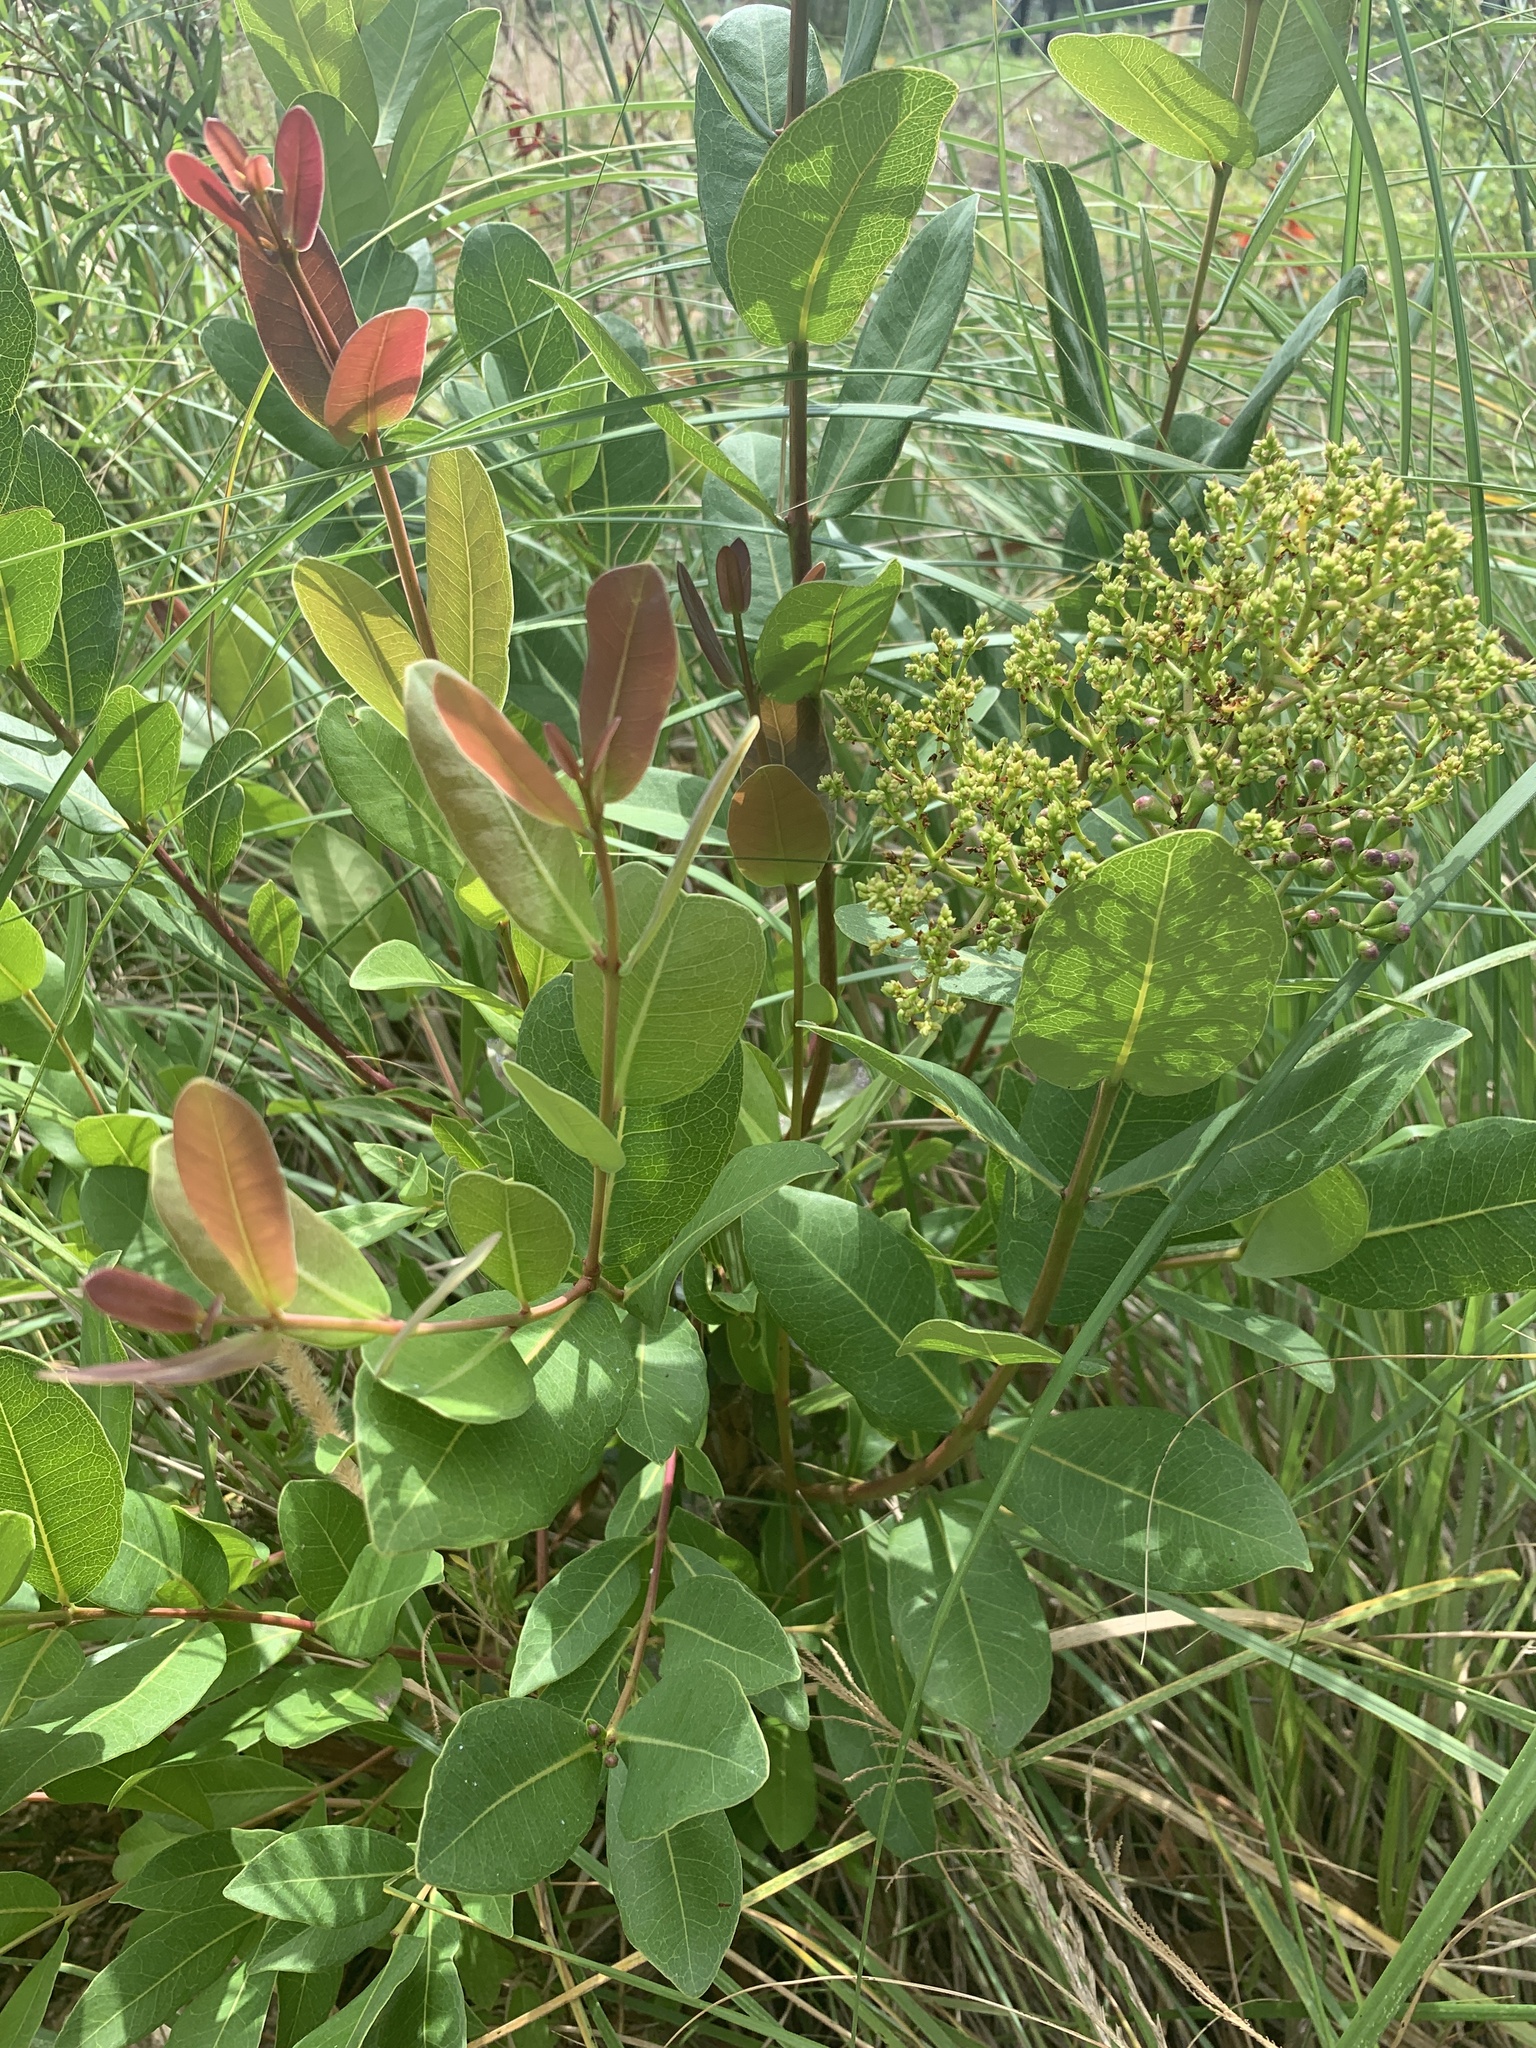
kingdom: Plantae
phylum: Tracheophyta
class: Magnoliopsida
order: Myrtales
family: Myrtaceae
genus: Syzygium
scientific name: Syzygium cordatum
